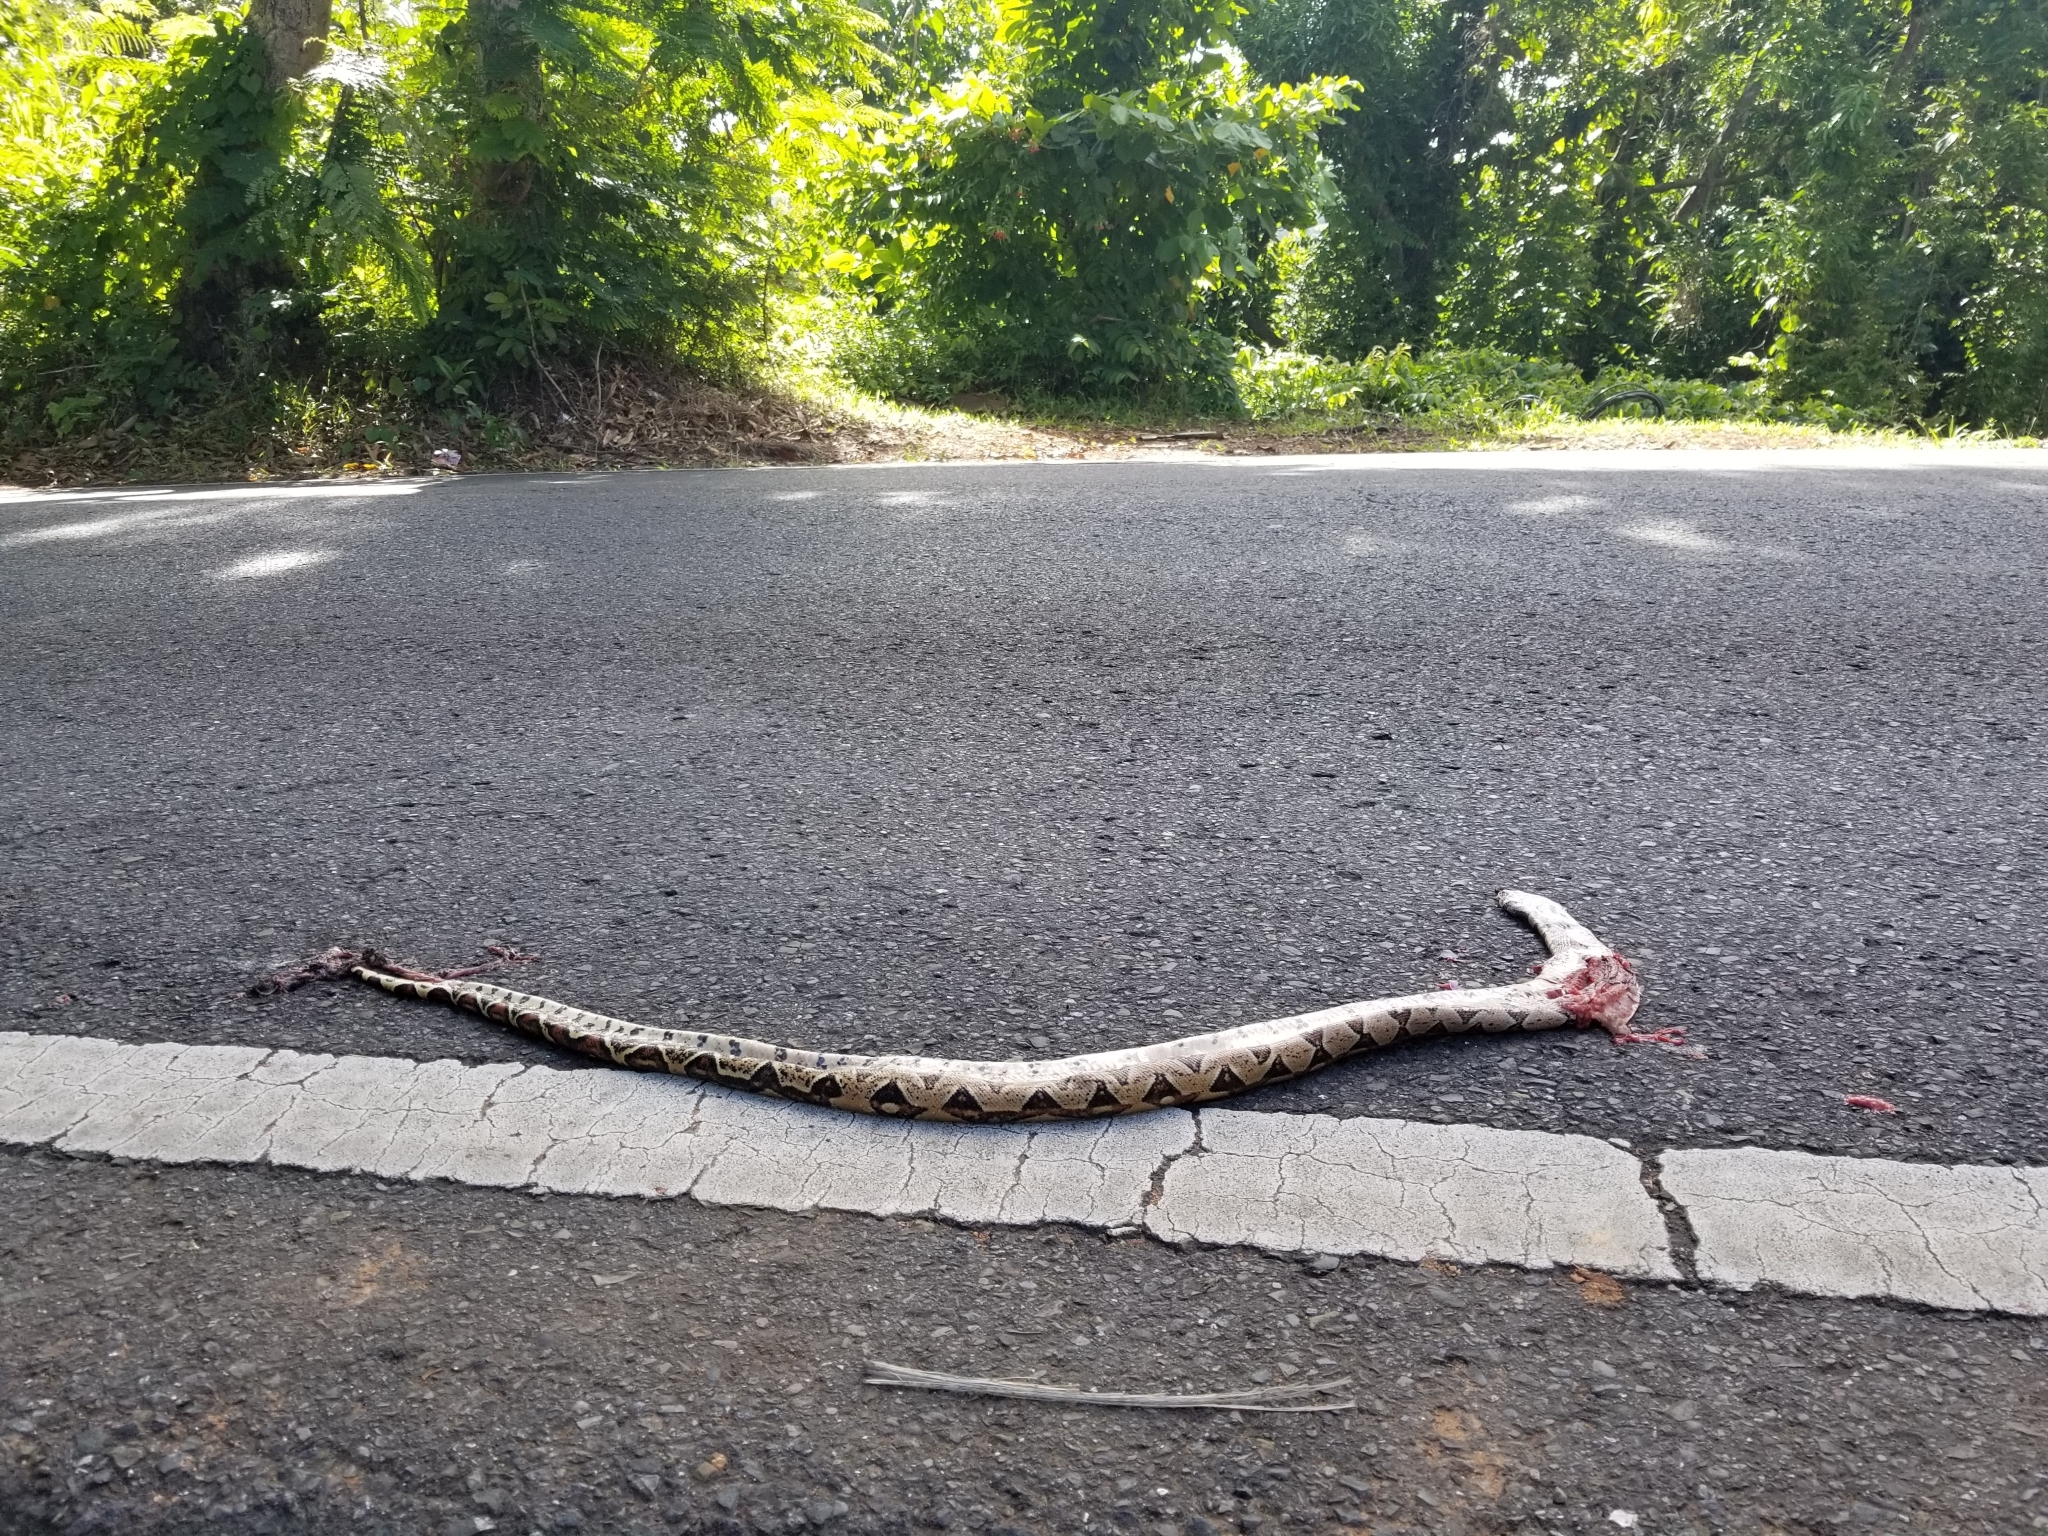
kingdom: Animalia
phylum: Chordata
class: Squamata
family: Boidae
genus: Boa
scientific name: Boa constrictor
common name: Boa constrictor
